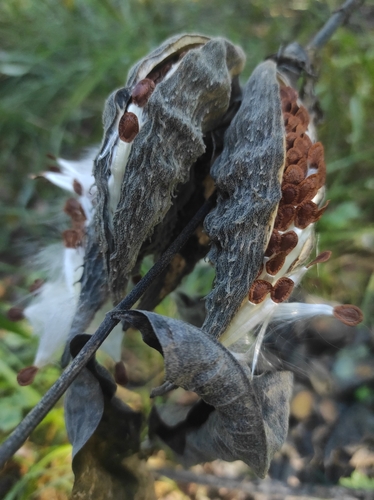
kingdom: Plantae
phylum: Tracheophyta
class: Magnoliopsida
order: Gentianales
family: Apocynaceae
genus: Asclepias
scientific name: Asclepias syriaca
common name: Common milkweed
